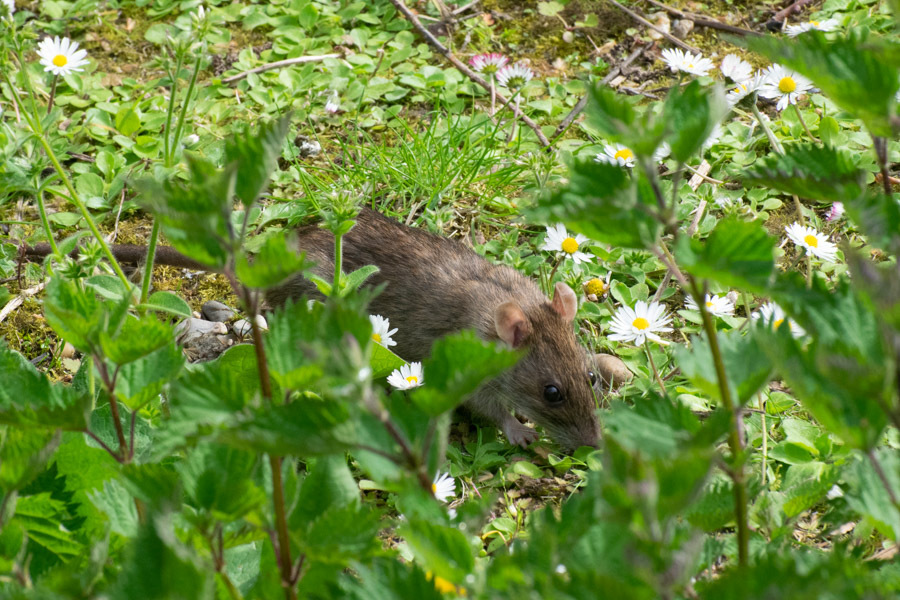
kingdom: Animalia
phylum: Chordata
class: Mammalia
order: Rodentia
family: Muridae
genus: Rattus
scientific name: Rattus norvegicus
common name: Brown rat
